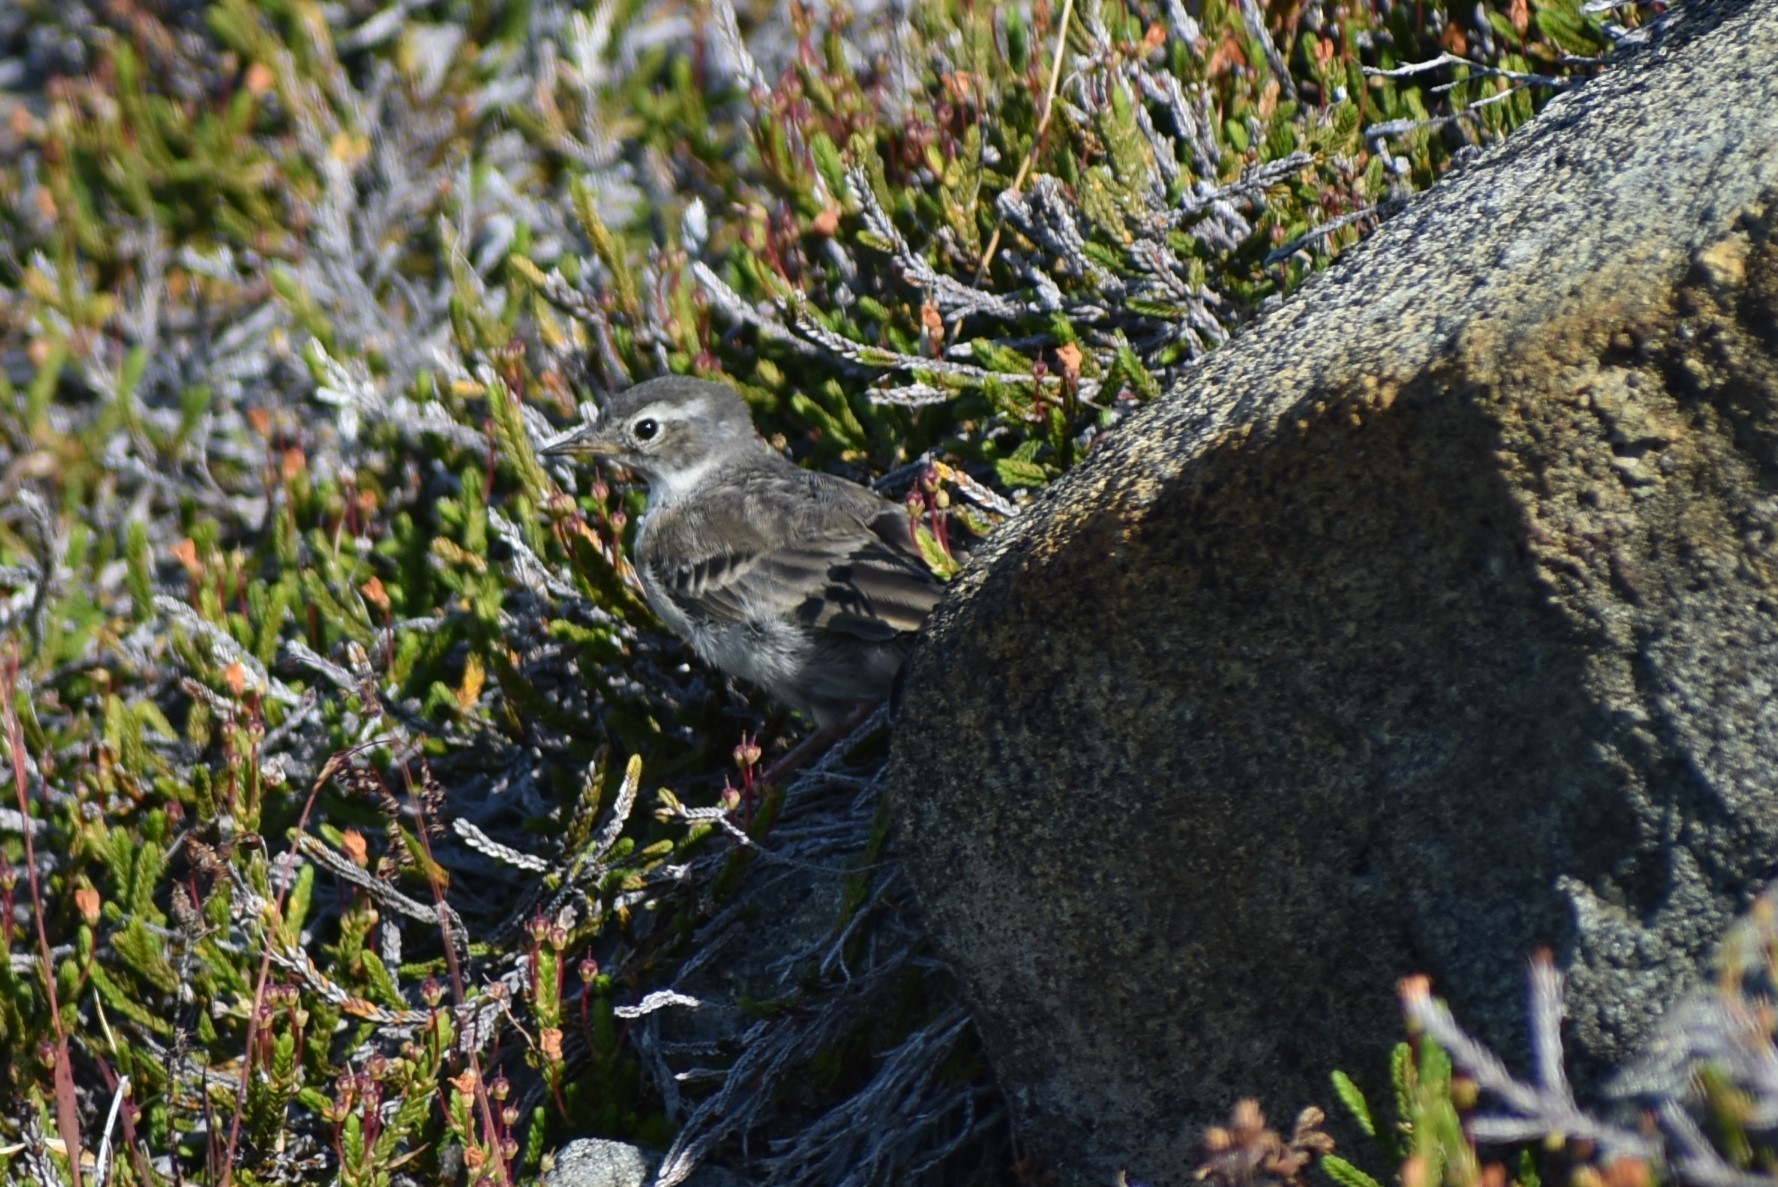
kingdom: Animalia
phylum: Chordata
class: Aves
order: Passeriformes
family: Motacillidae
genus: Anthus
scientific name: Anthus rubescens
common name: Buff-bellied pipit
